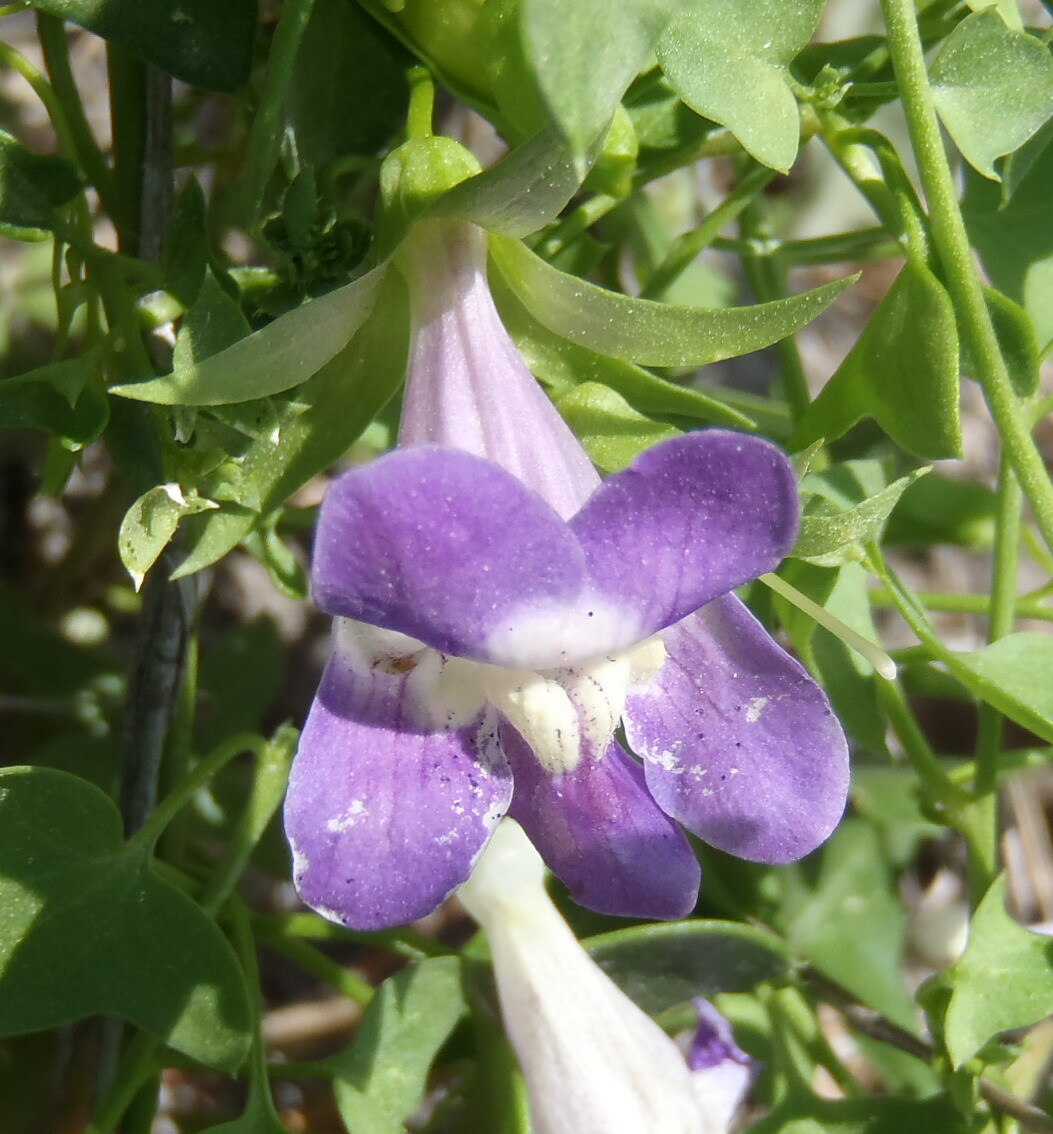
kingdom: Plantae
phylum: Tracheophyta
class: Magnoliopsida
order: Lamiales
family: Plantaginaceae
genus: Maurandella
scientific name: Maurandella antirrhiniflora
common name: Violet twining-snapdragon
